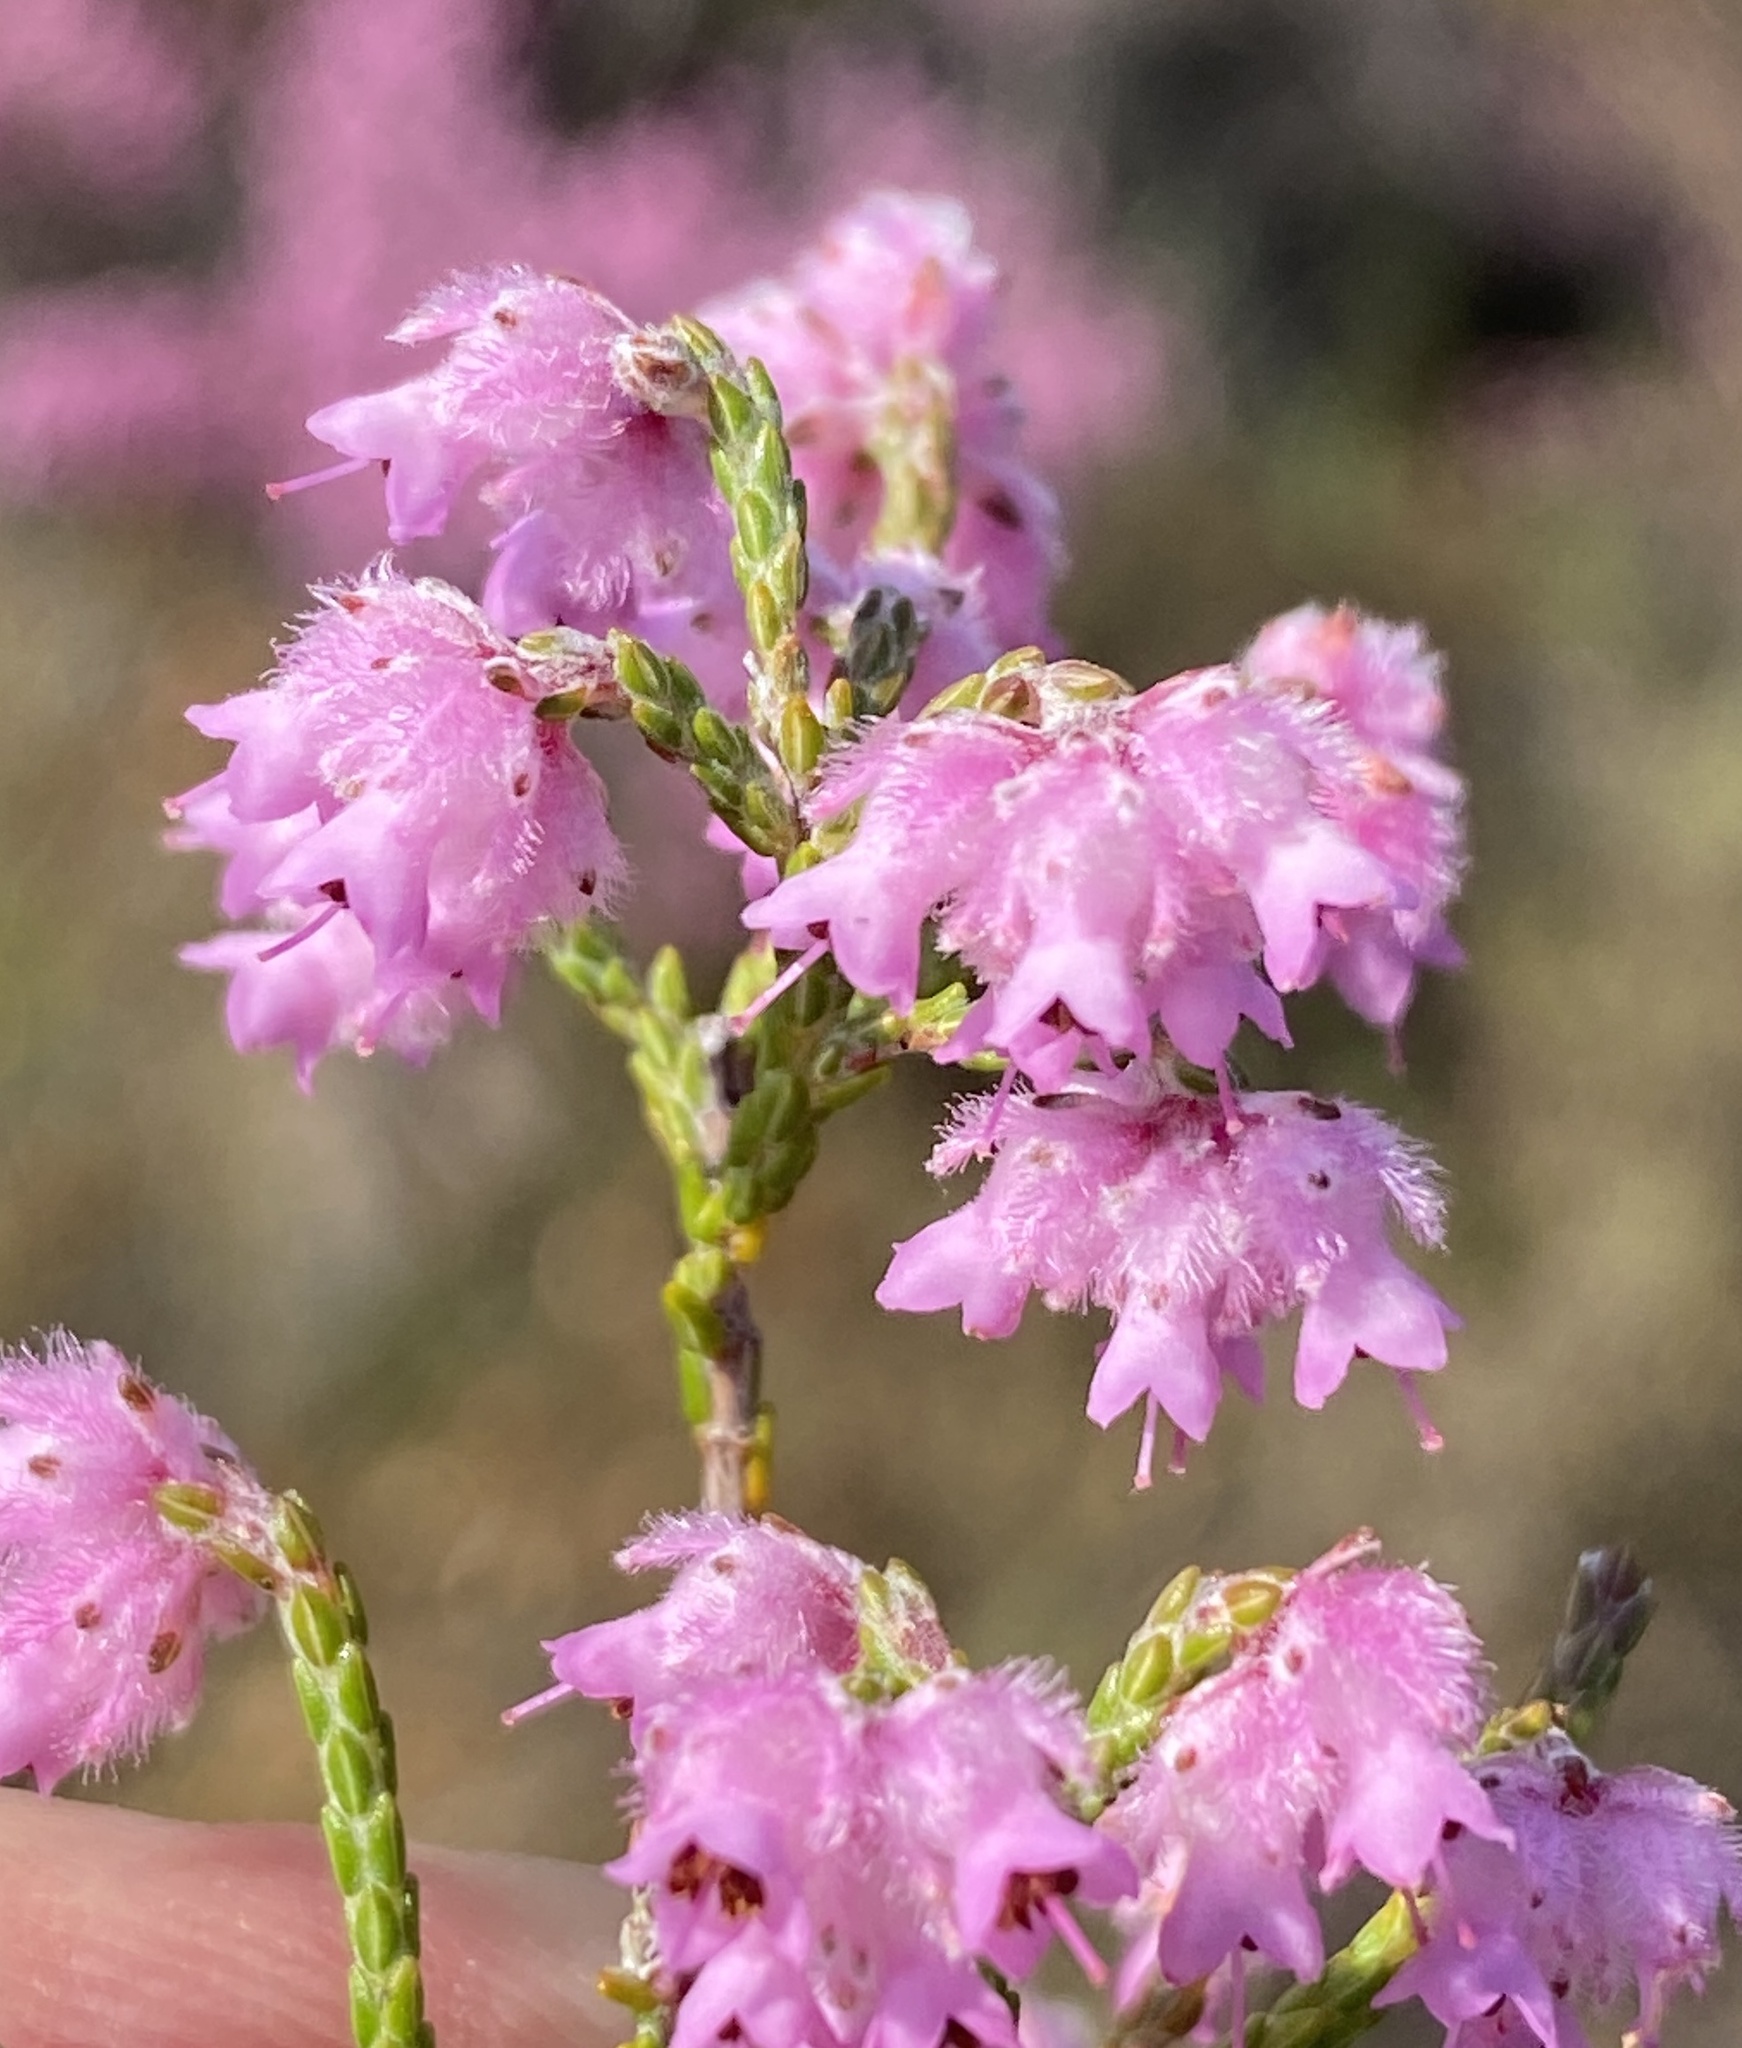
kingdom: Plantae
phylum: Tracheophyta
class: Magnoliopsida
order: Ericales
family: Ericaceae
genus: Erica
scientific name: Erica plumosa
